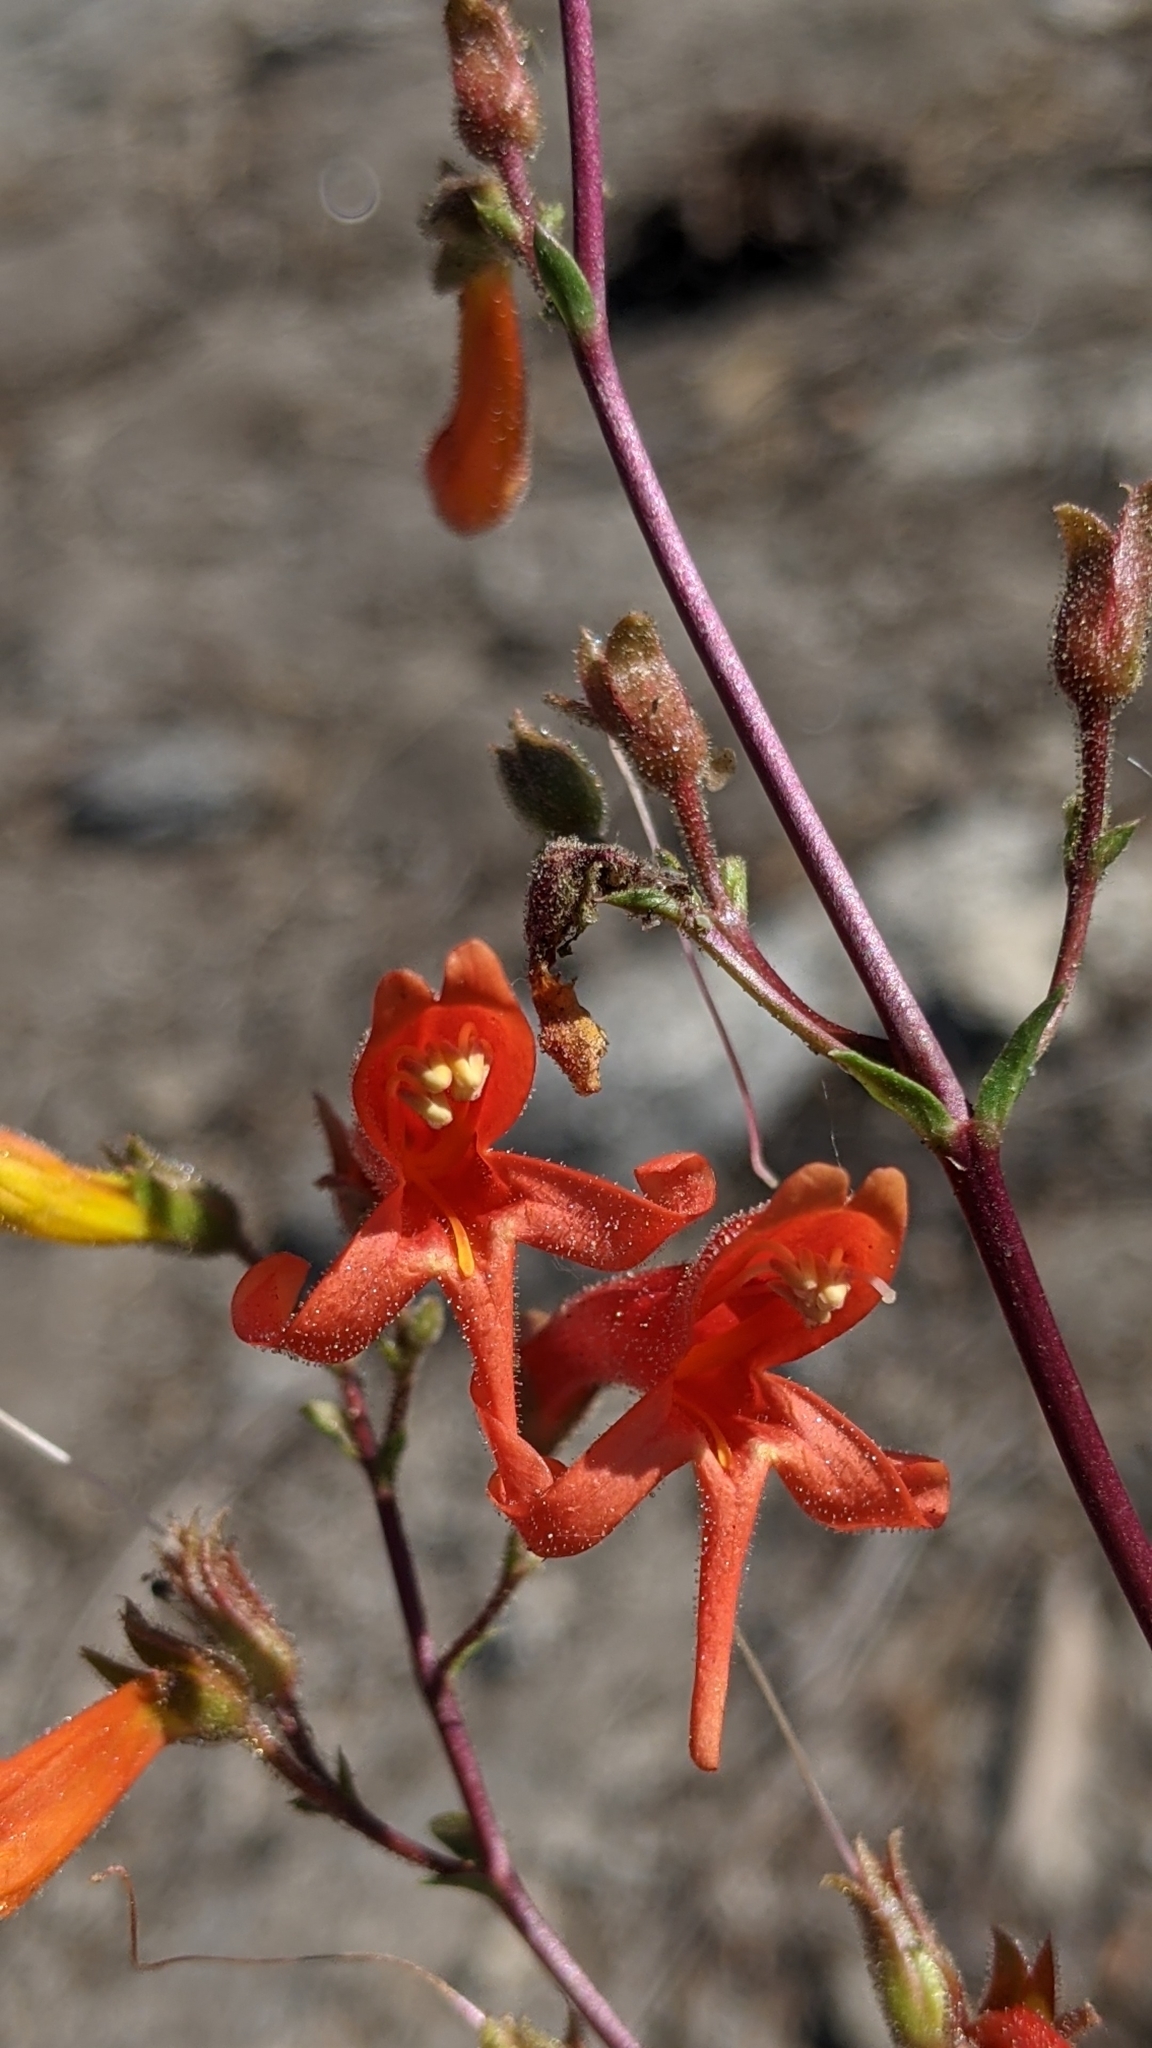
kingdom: Plantae
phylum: Tracheophyta
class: Magnoliopsida
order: Lamiales
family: Plantaginaceae
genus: Penstemon
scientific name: Penstemon rostriflorus
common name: Bridges's penstemon
